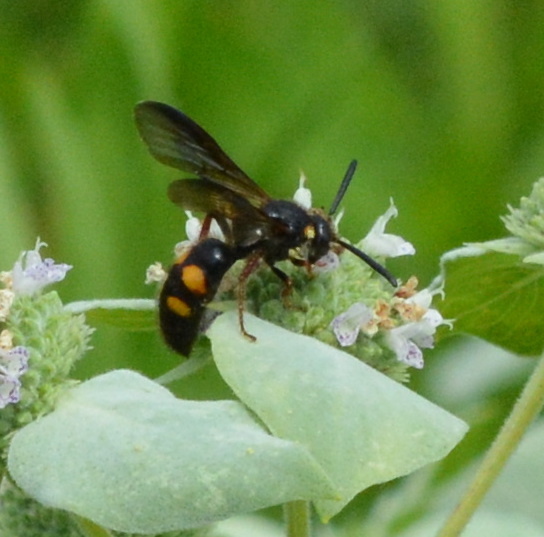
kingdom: Animalia
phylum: Arthropoda
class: Insecta
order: Hymenoptera
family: Scoliidae
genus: Scolia
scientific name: Scolia nobilitata
